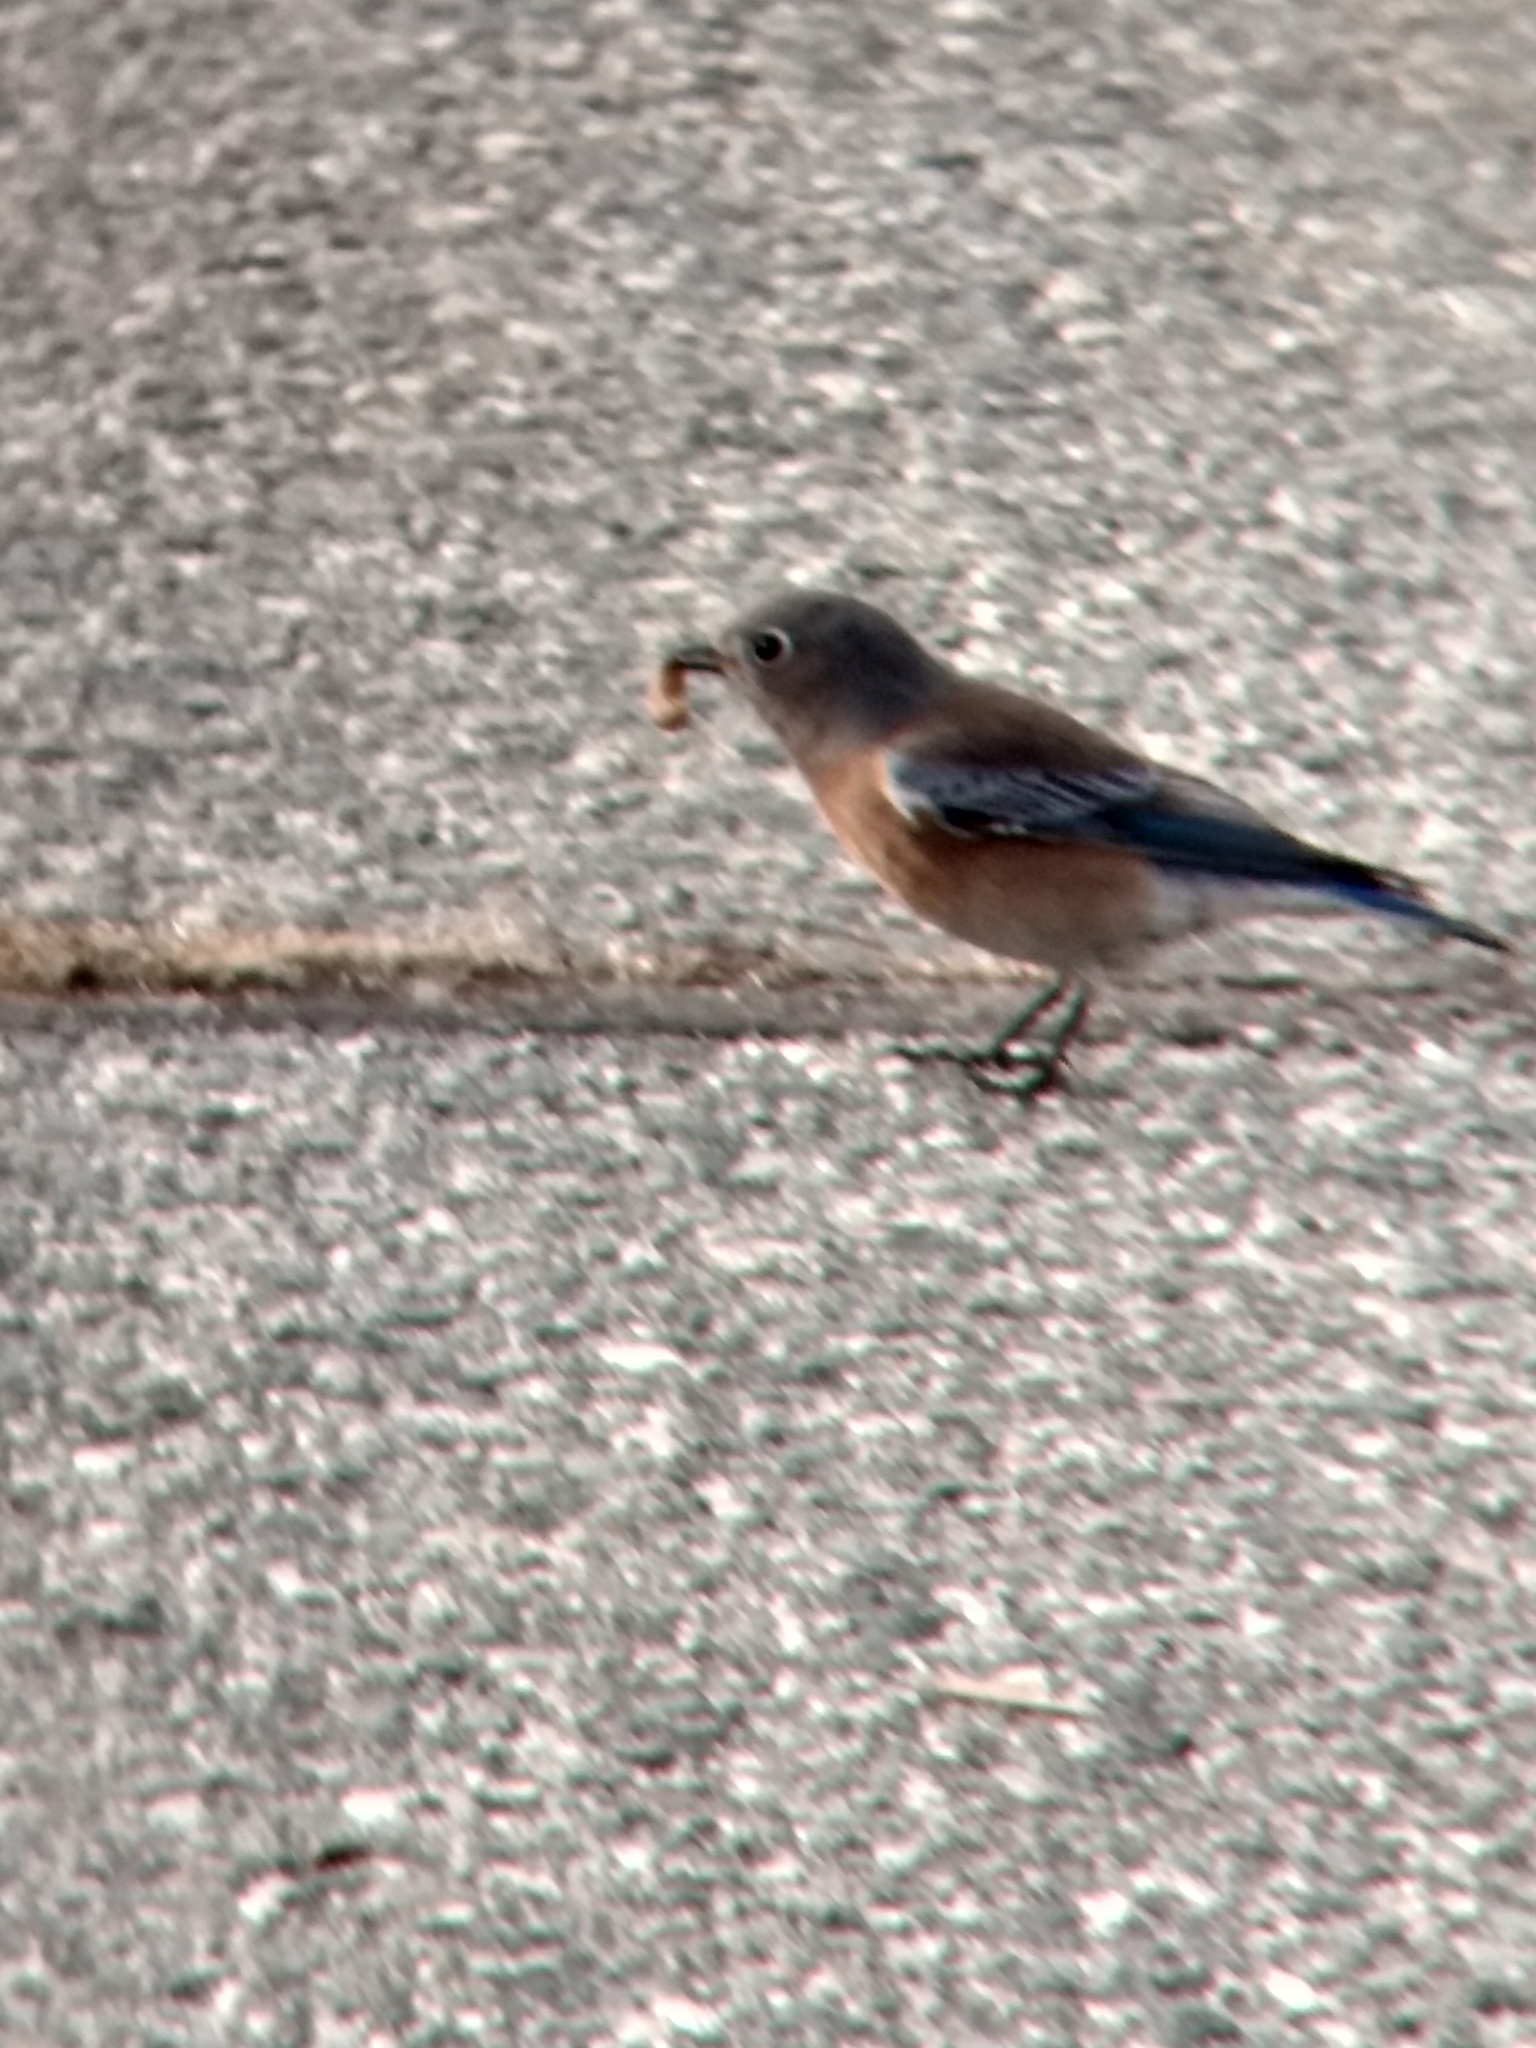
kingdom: Animalia
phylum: Chordata
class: Aves
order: Passeriformes
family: Turdidae
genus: Sialia
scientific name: Sialia mexicana
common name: Western bluebird
